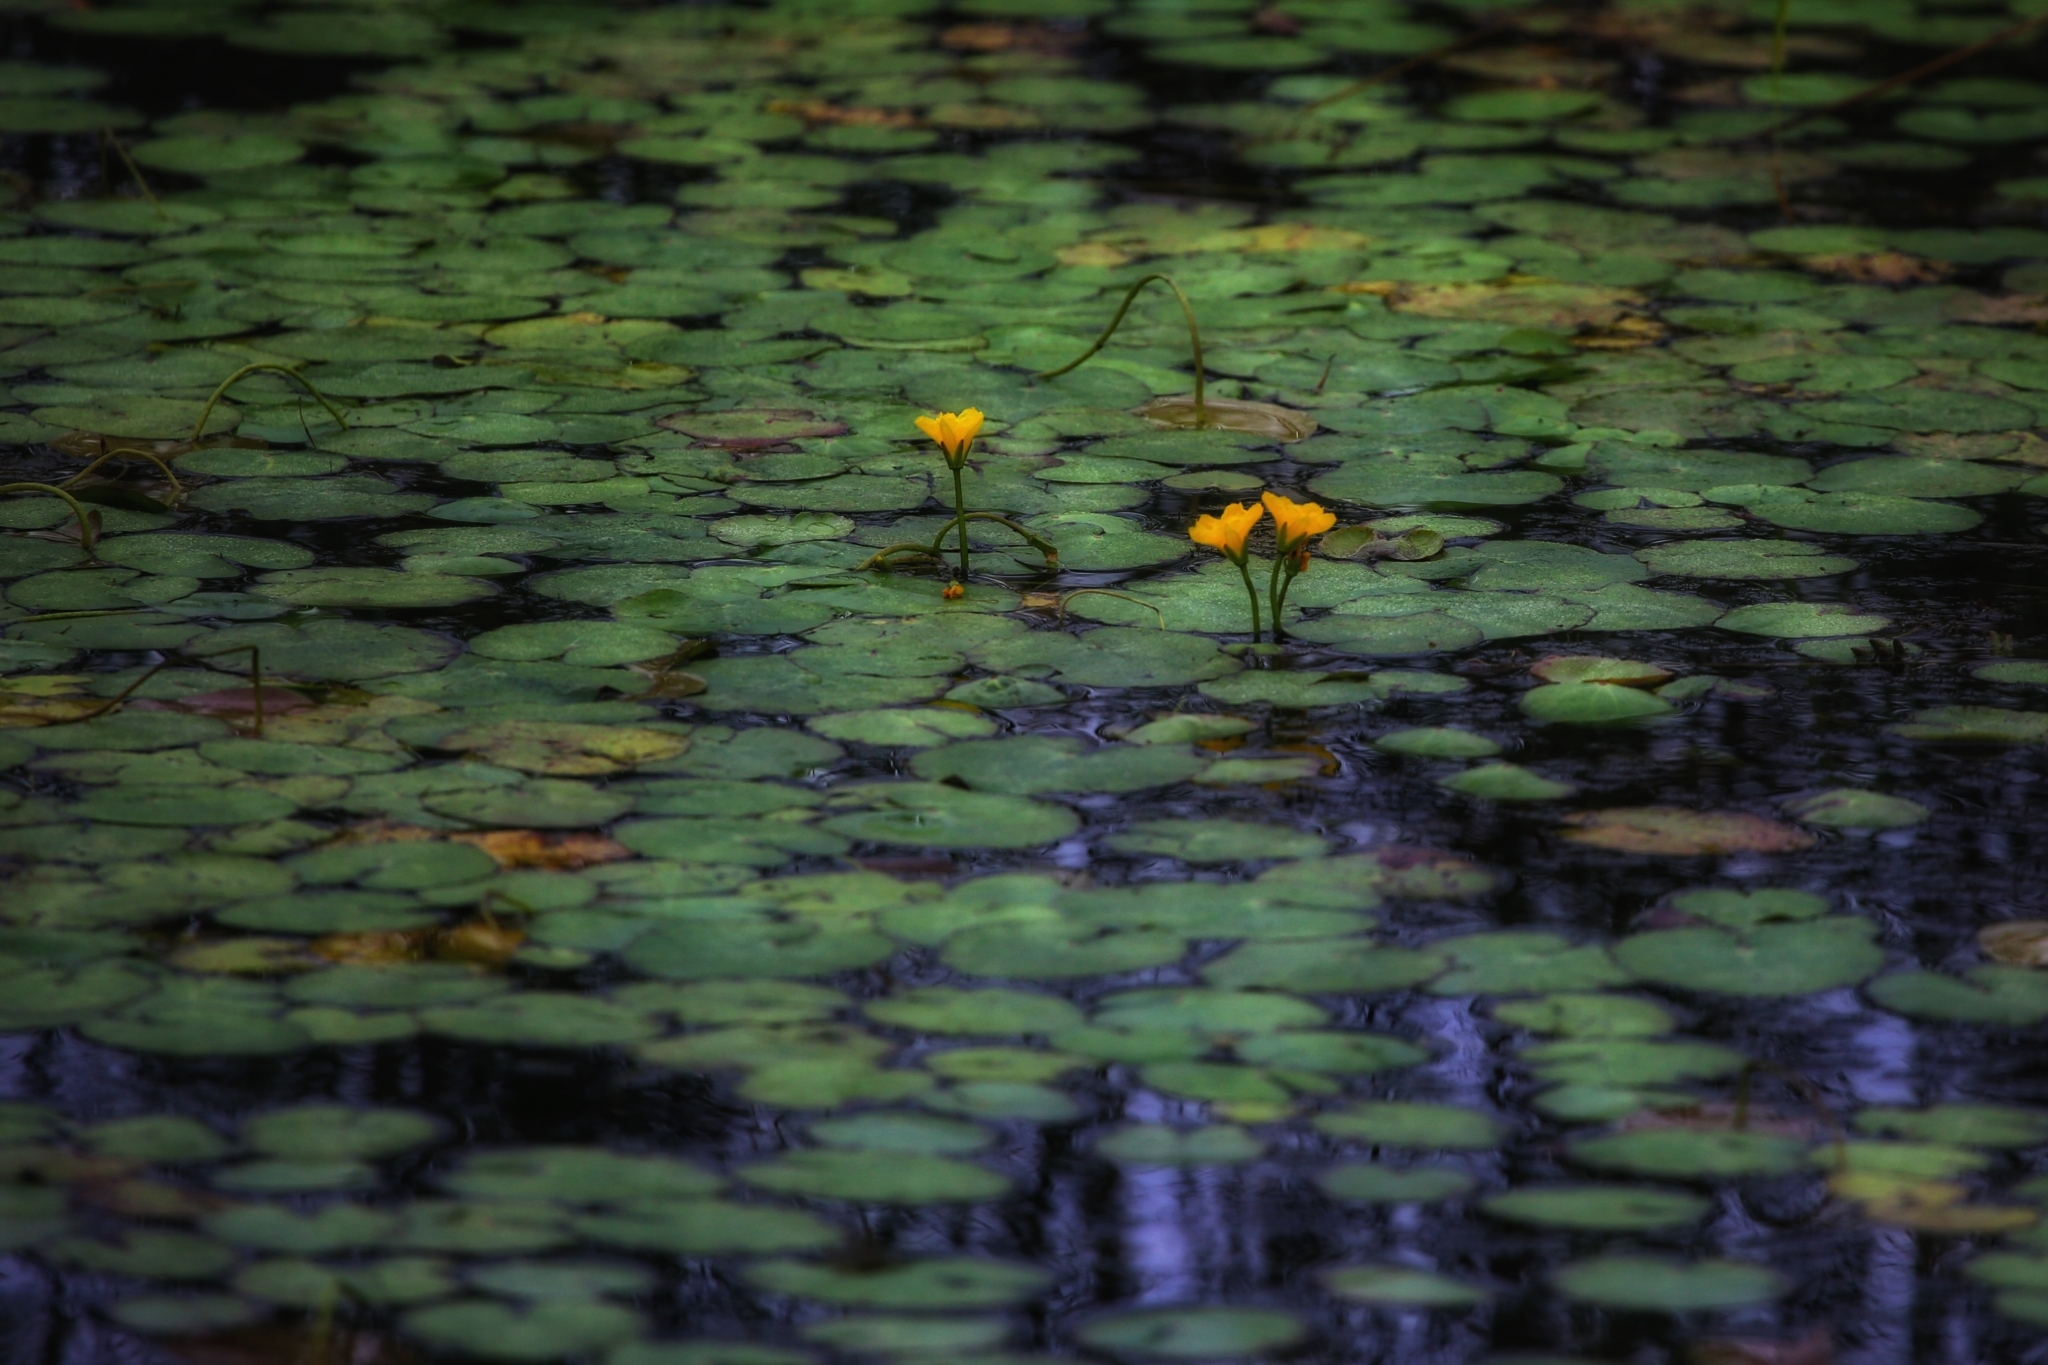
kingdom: Plantae
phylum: Tracheophyta
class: Magnoliopsida
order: Asterales
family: Menyanthaceae
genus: Nymphoides
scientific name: Nymphoides peltata
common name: Fringed water-lily
